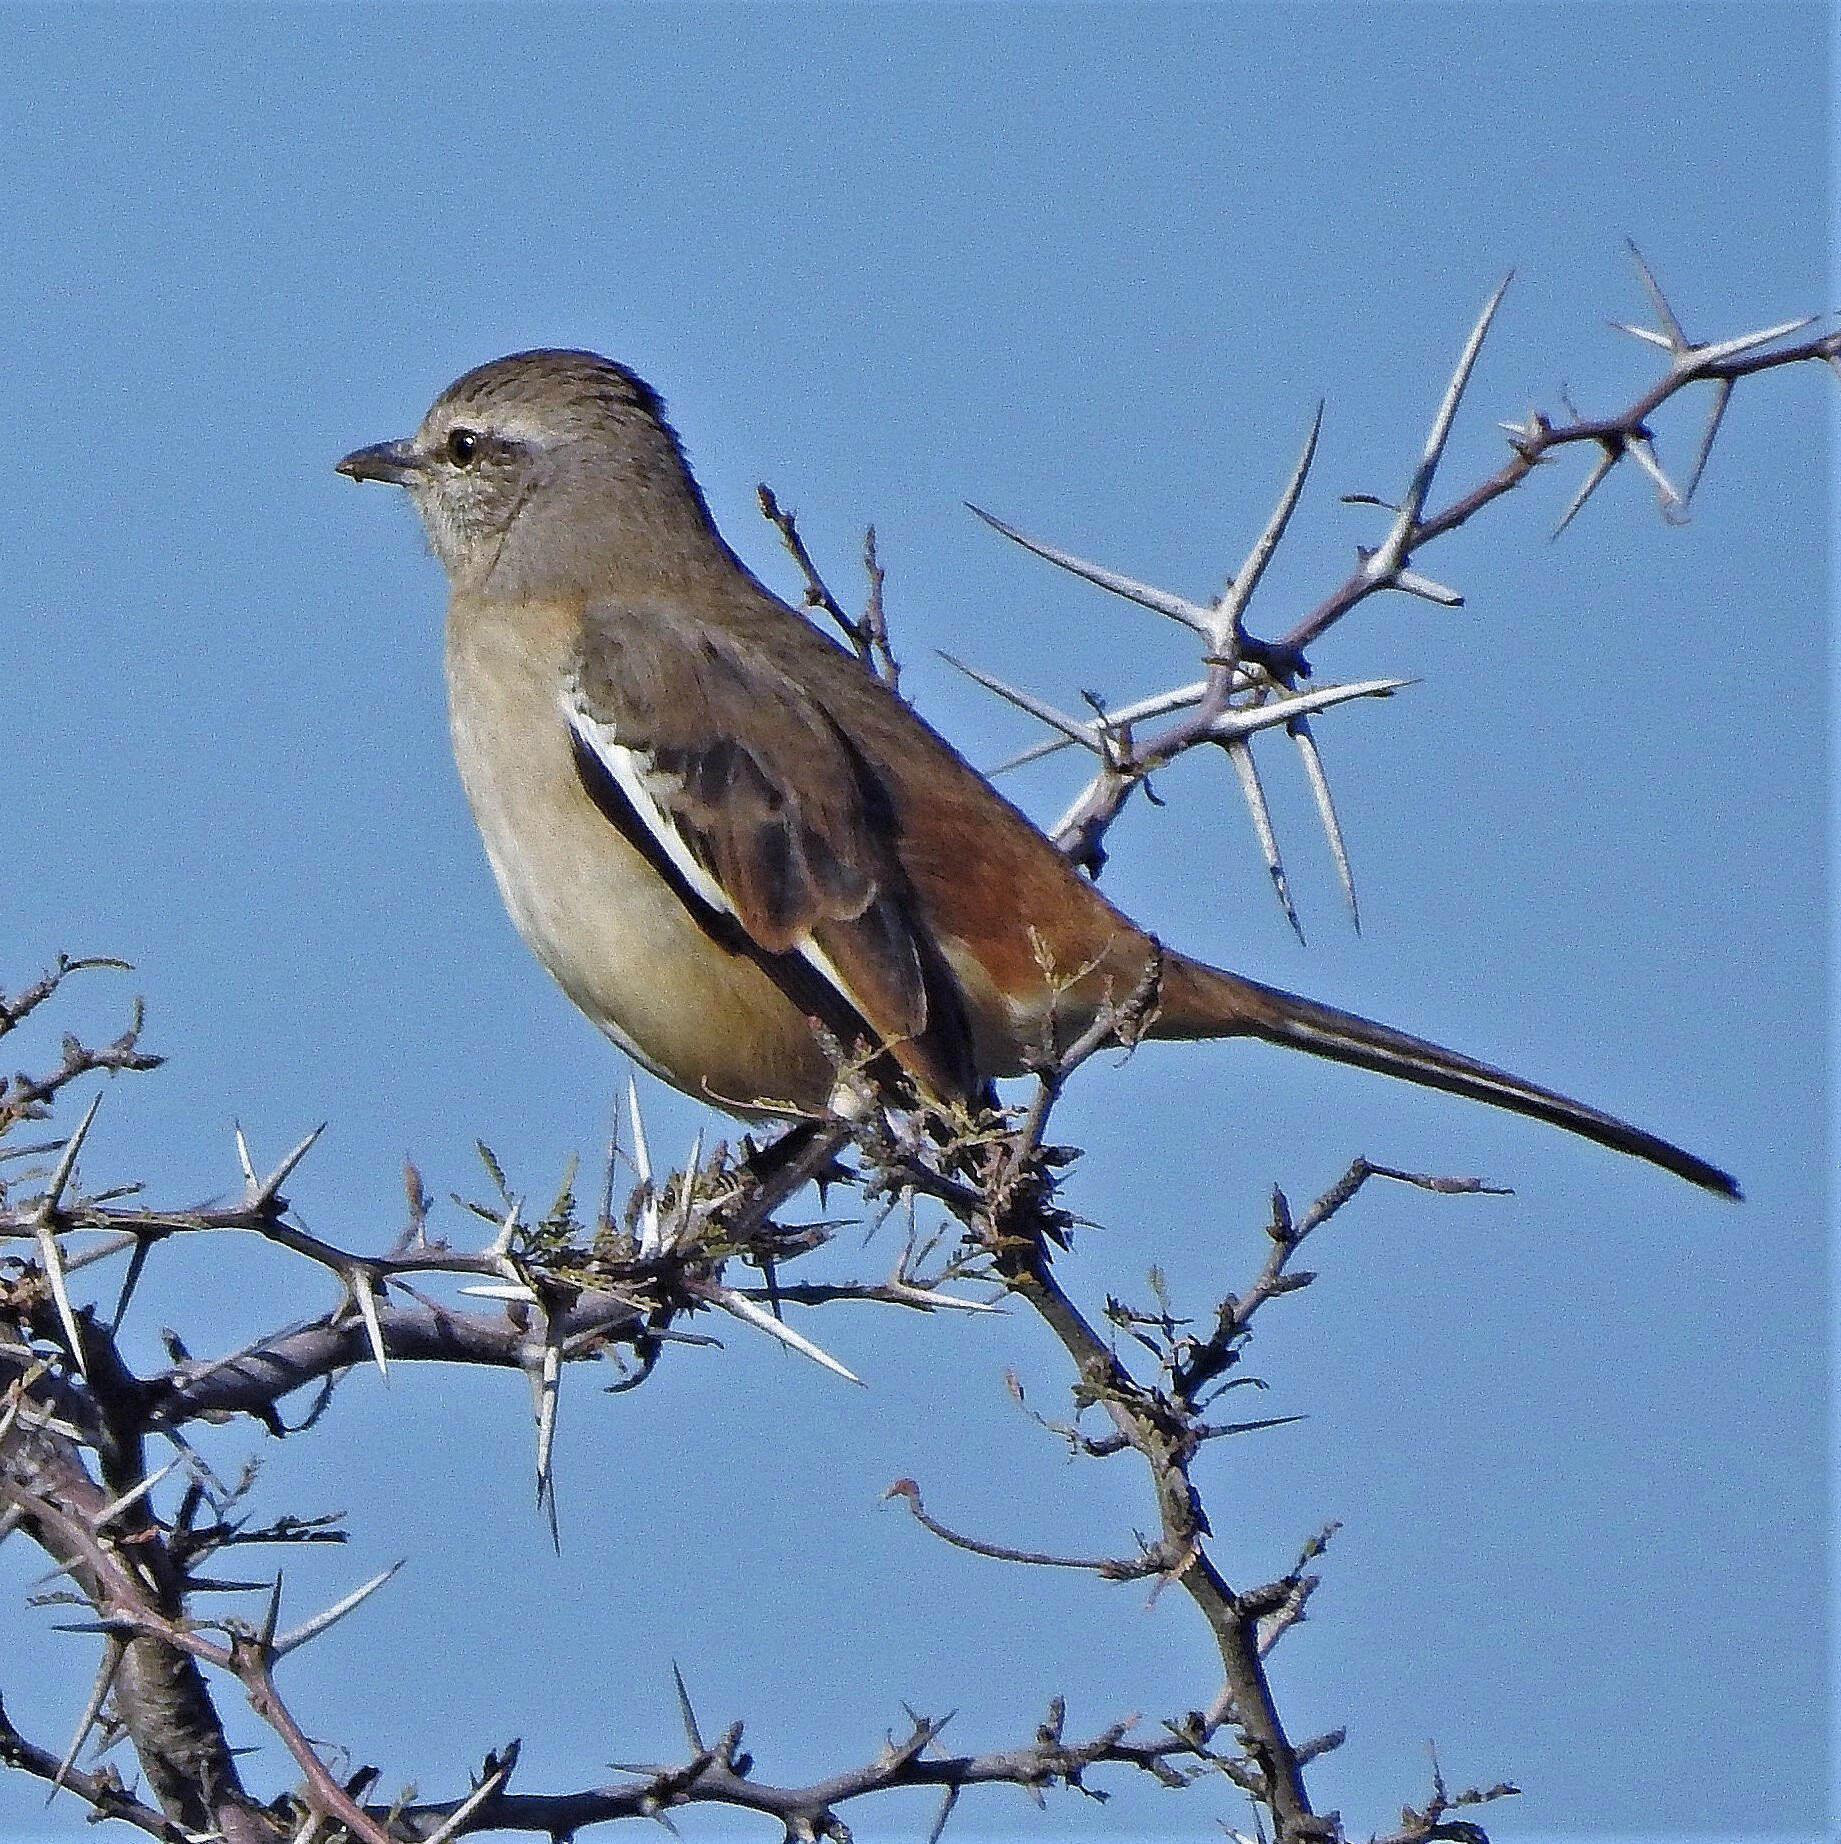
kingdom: Animalia
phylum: Chordata
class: Aves
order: Passeriformes
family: Mimidae
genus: Mimus
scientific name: Mimus triurus
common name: White-banded mockingbird
